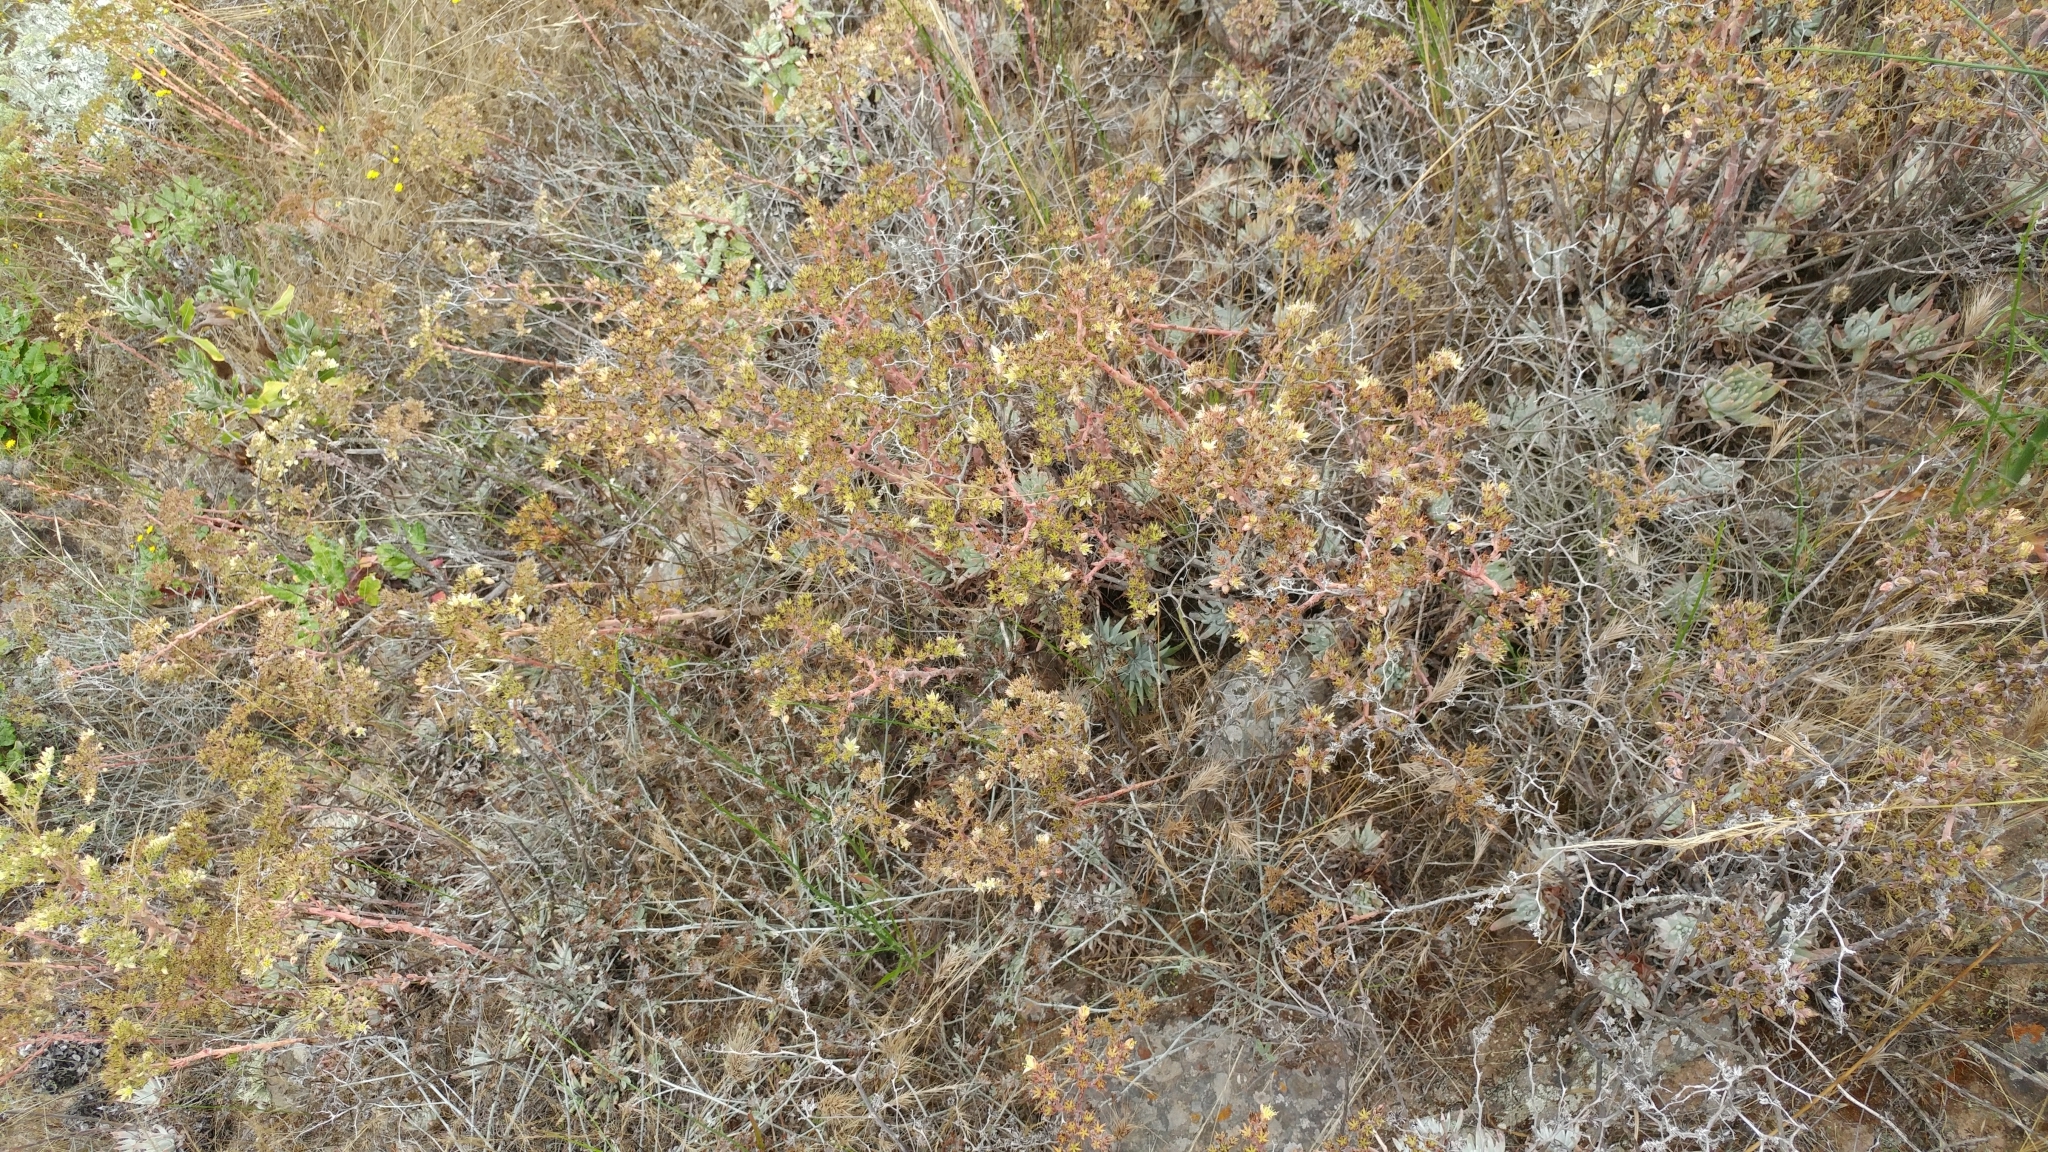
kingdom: Plantae
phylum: Tracheophyta
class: Magnoliopsida
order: Saxifragales
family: Crassulaceae
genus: Dudleya
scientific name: Dudleya virens
